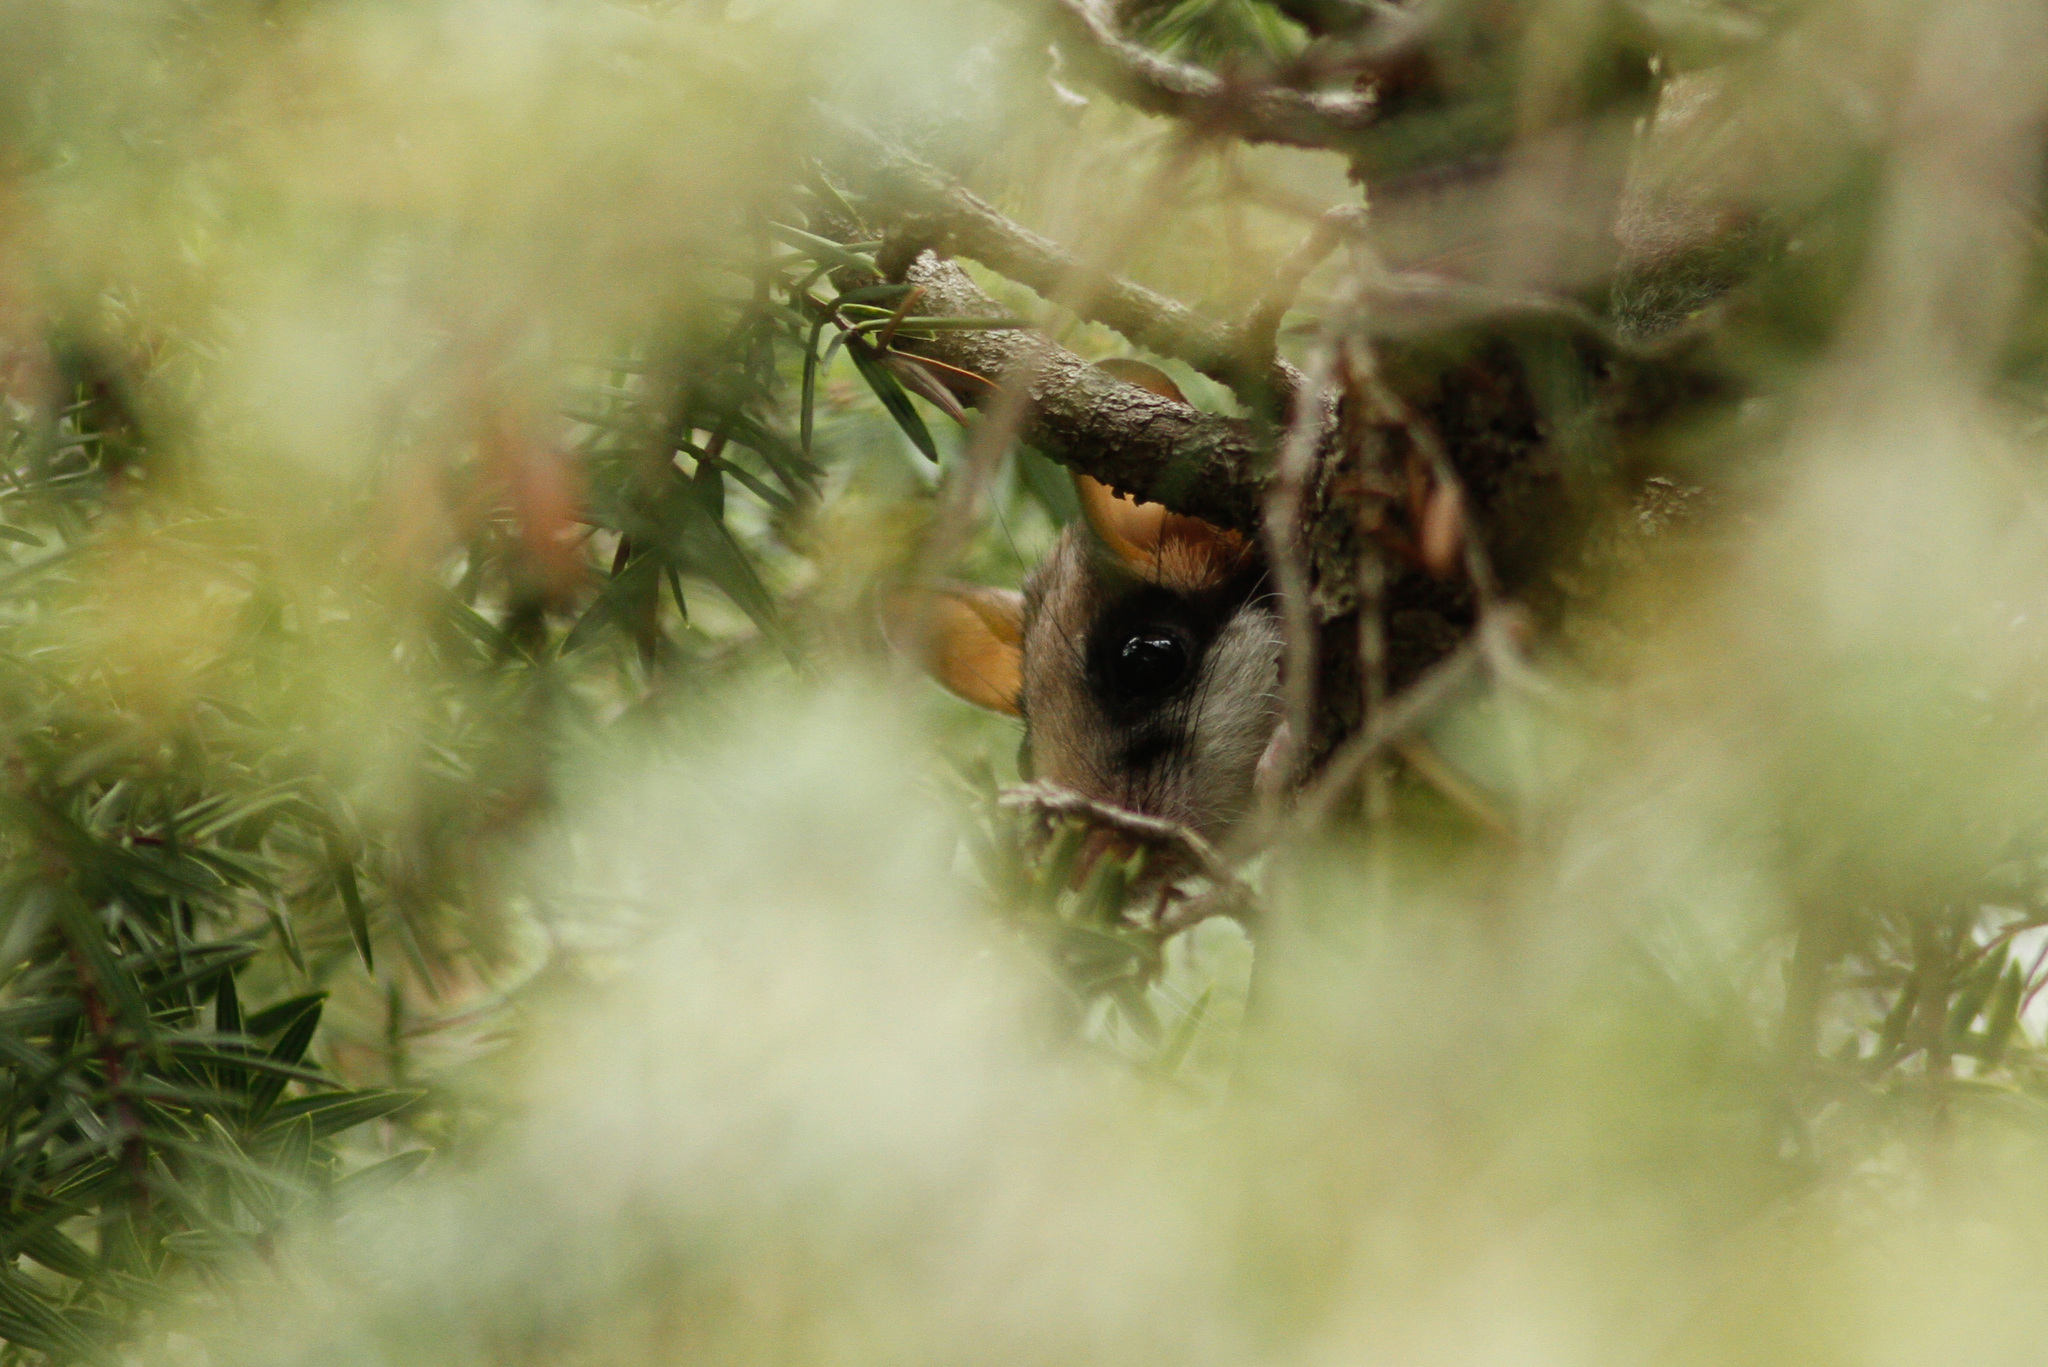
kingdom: Animalia
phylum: Chordata
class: Mammalia
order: Rodentia
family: Gliridae
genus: Eliomys
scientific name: Eliomys quercinus
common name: Garden dormouse
